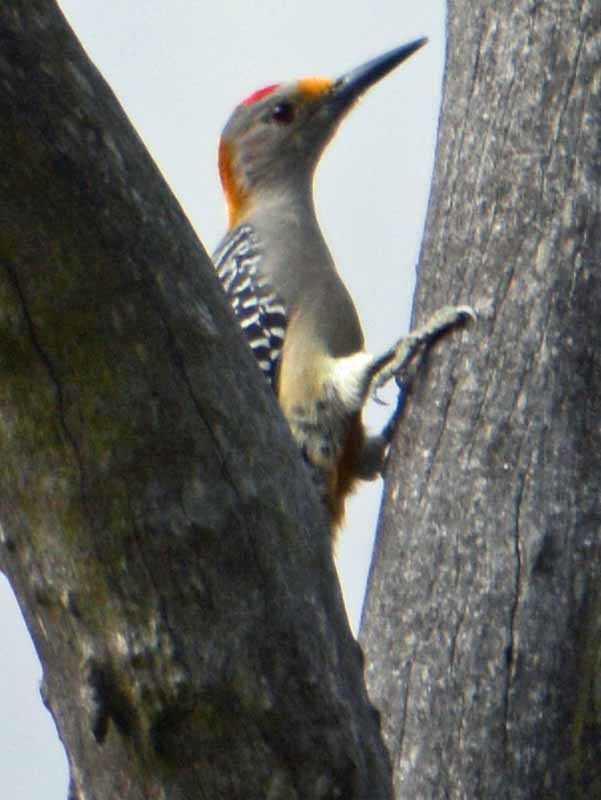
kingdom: Animalia
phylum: Chordata
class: Aves
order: Piciformes
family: Picidae
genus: Melanerpes
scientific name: Melanerpes aurifrons
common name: Golden-fronted woodpecker
